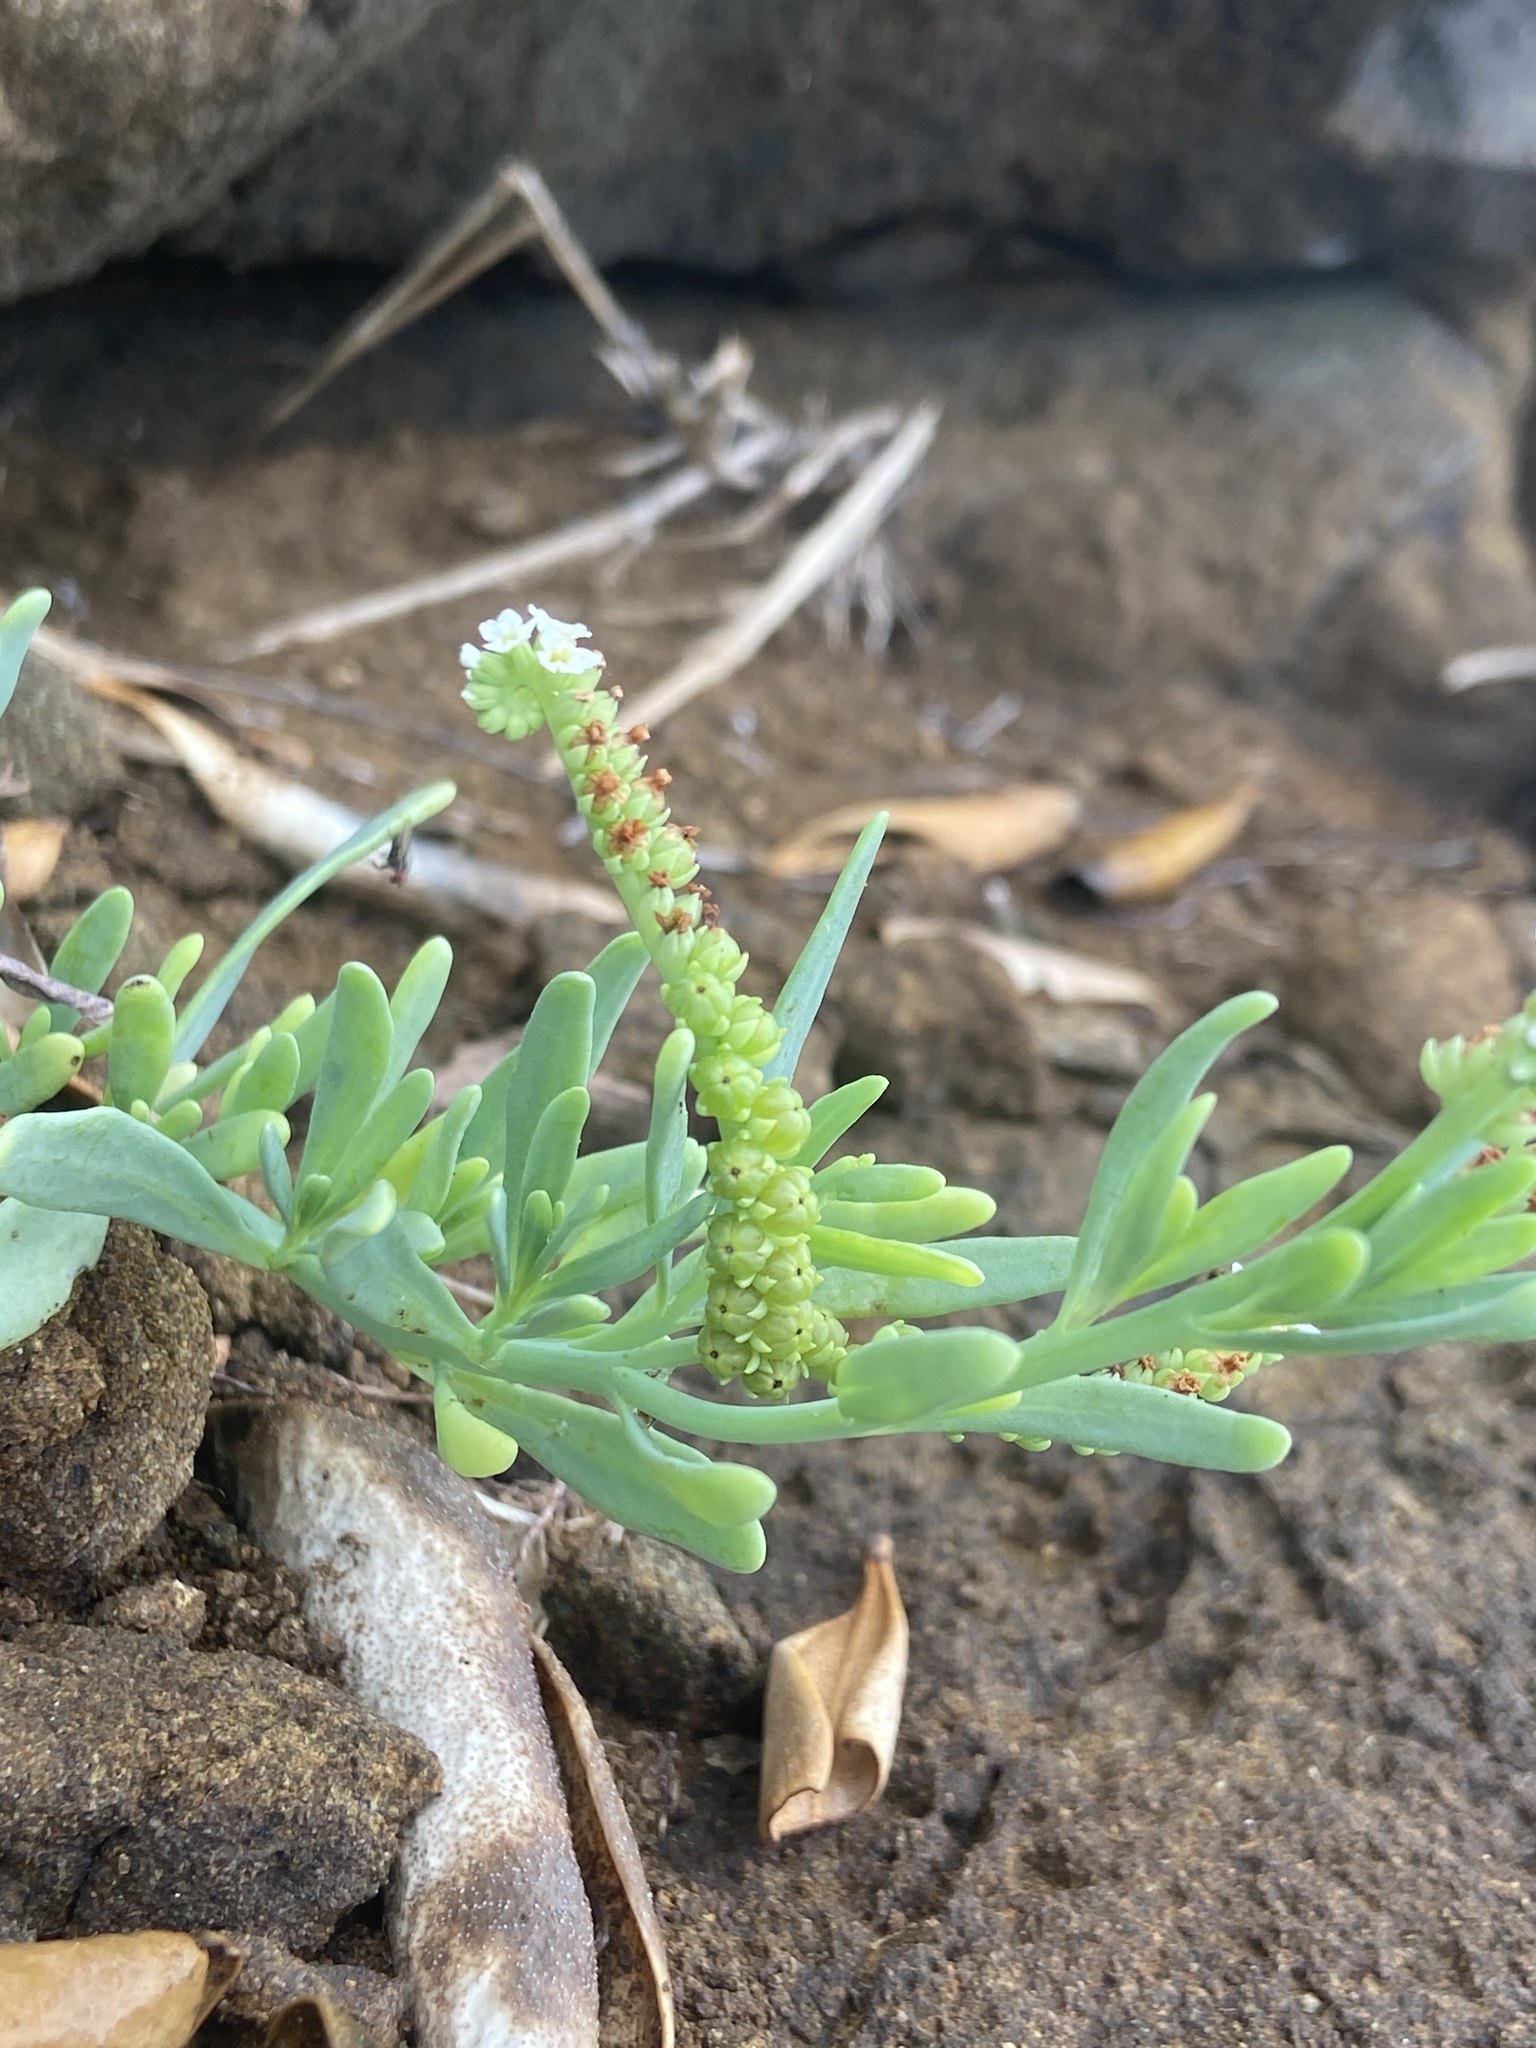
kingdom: Plantae
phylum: Tracheophyta
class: Magnoliopsida
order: Boraginales
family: Heliotropiaceae
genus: Heliotropium
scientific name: Heliotropium curassavicum
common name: Seaside heliotrope
